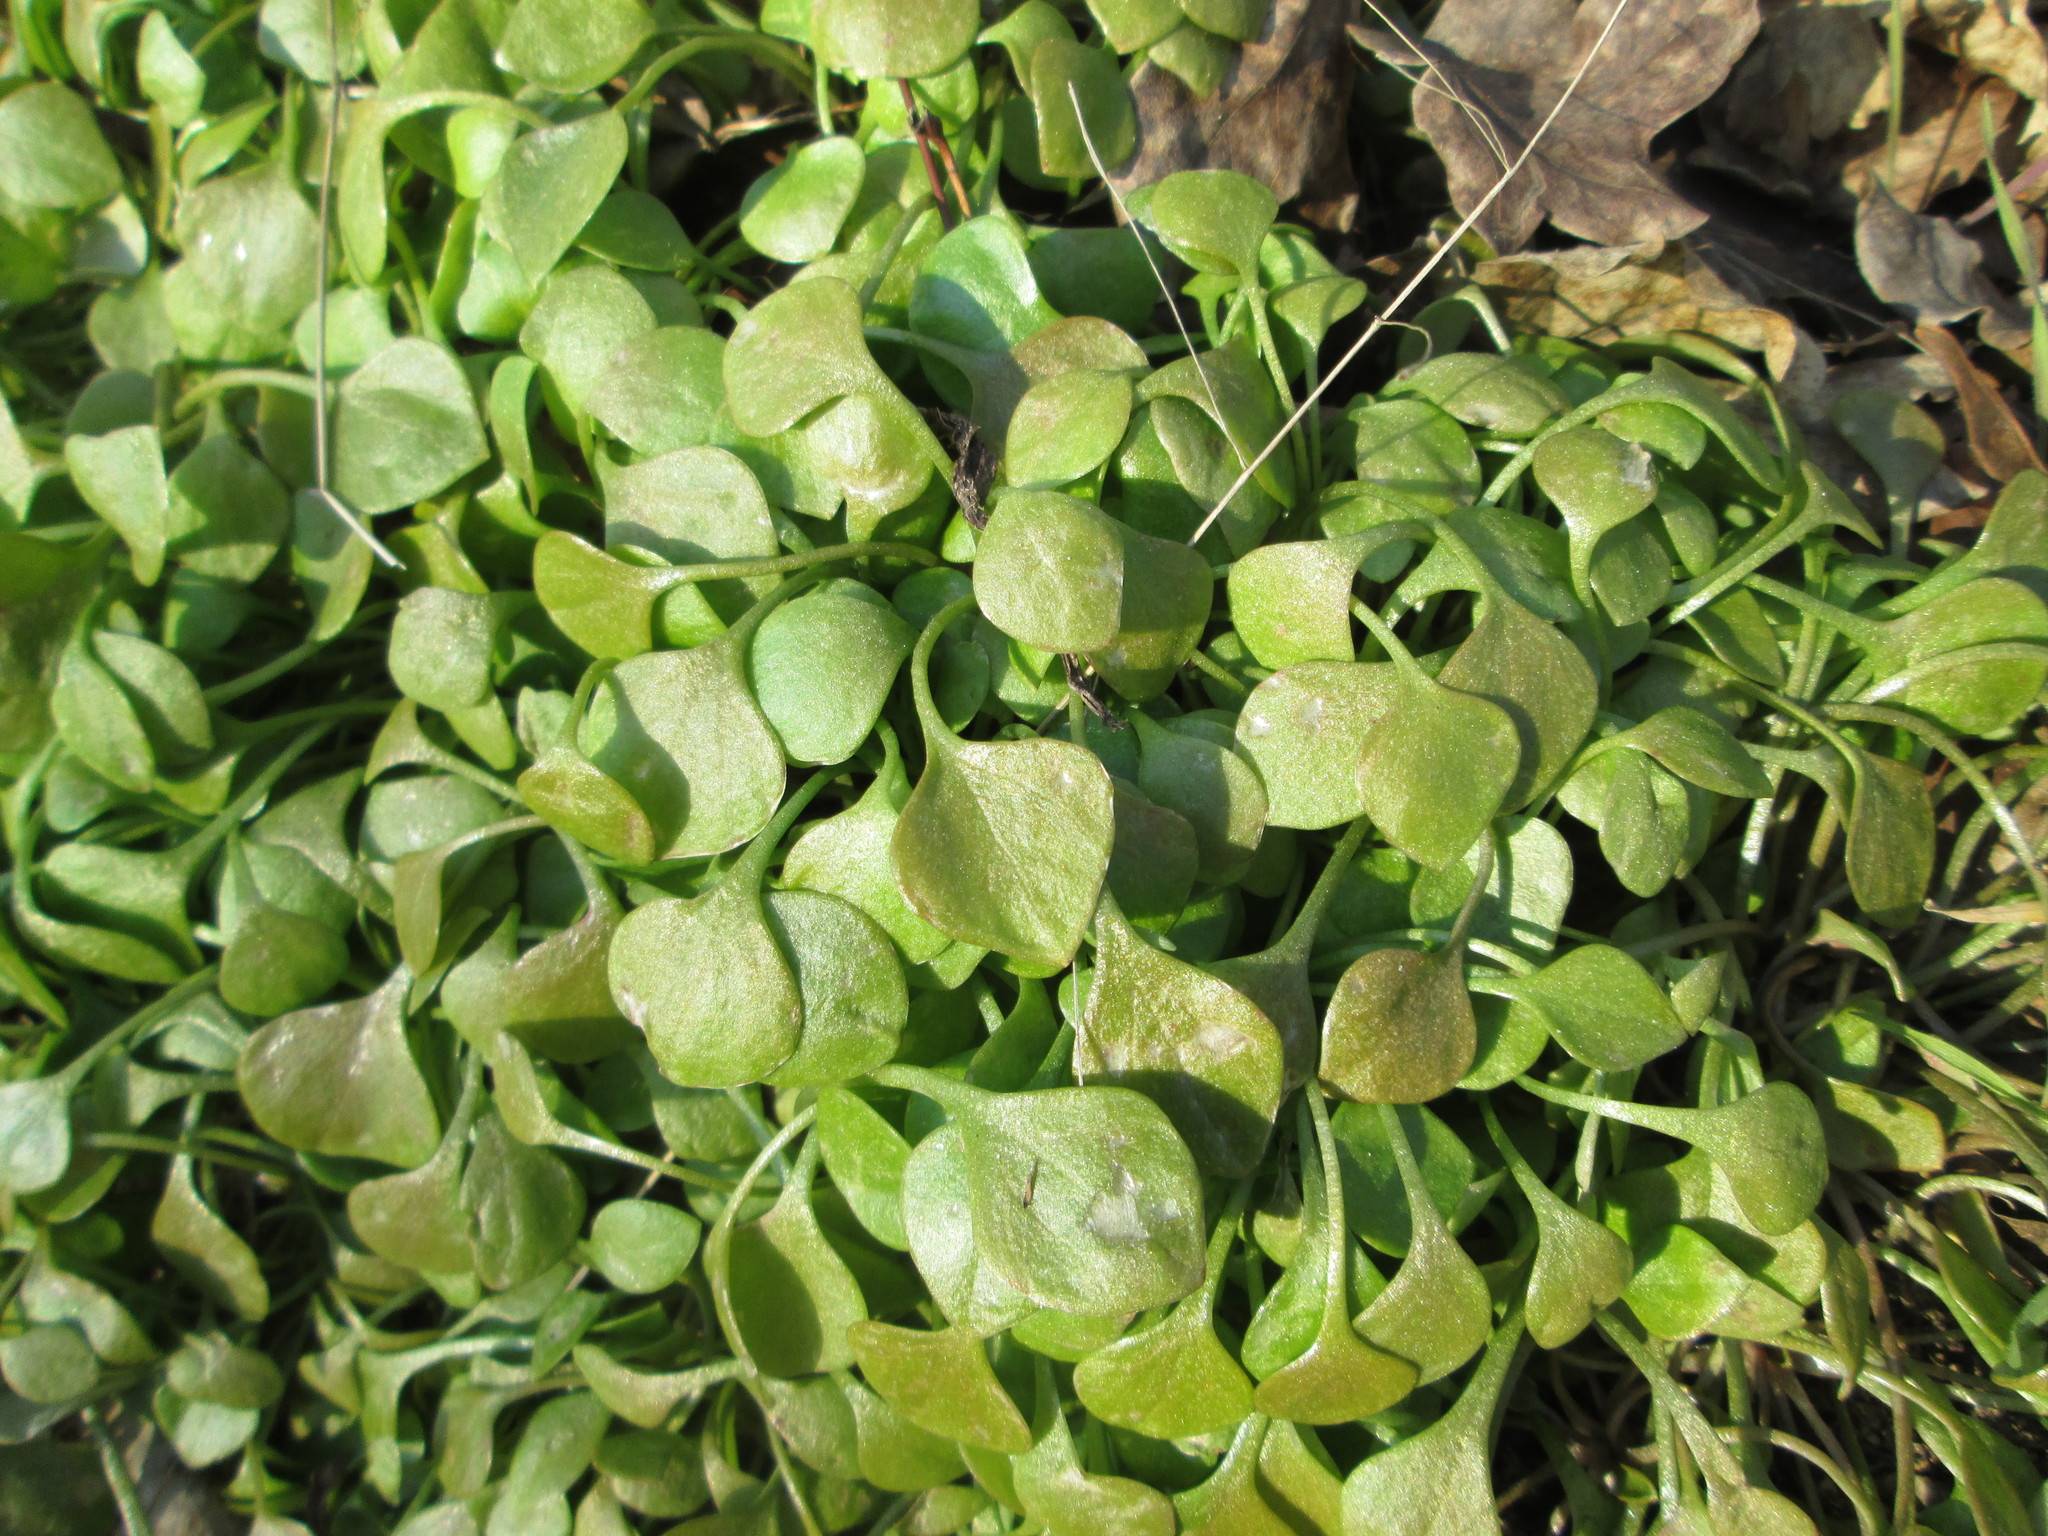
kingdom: Plantae
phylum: Tracheophyta
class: Magnoliopsida
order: Caryophyllales
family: Montiaceae
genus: Claytonia
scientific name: Claytonia perfoliata
